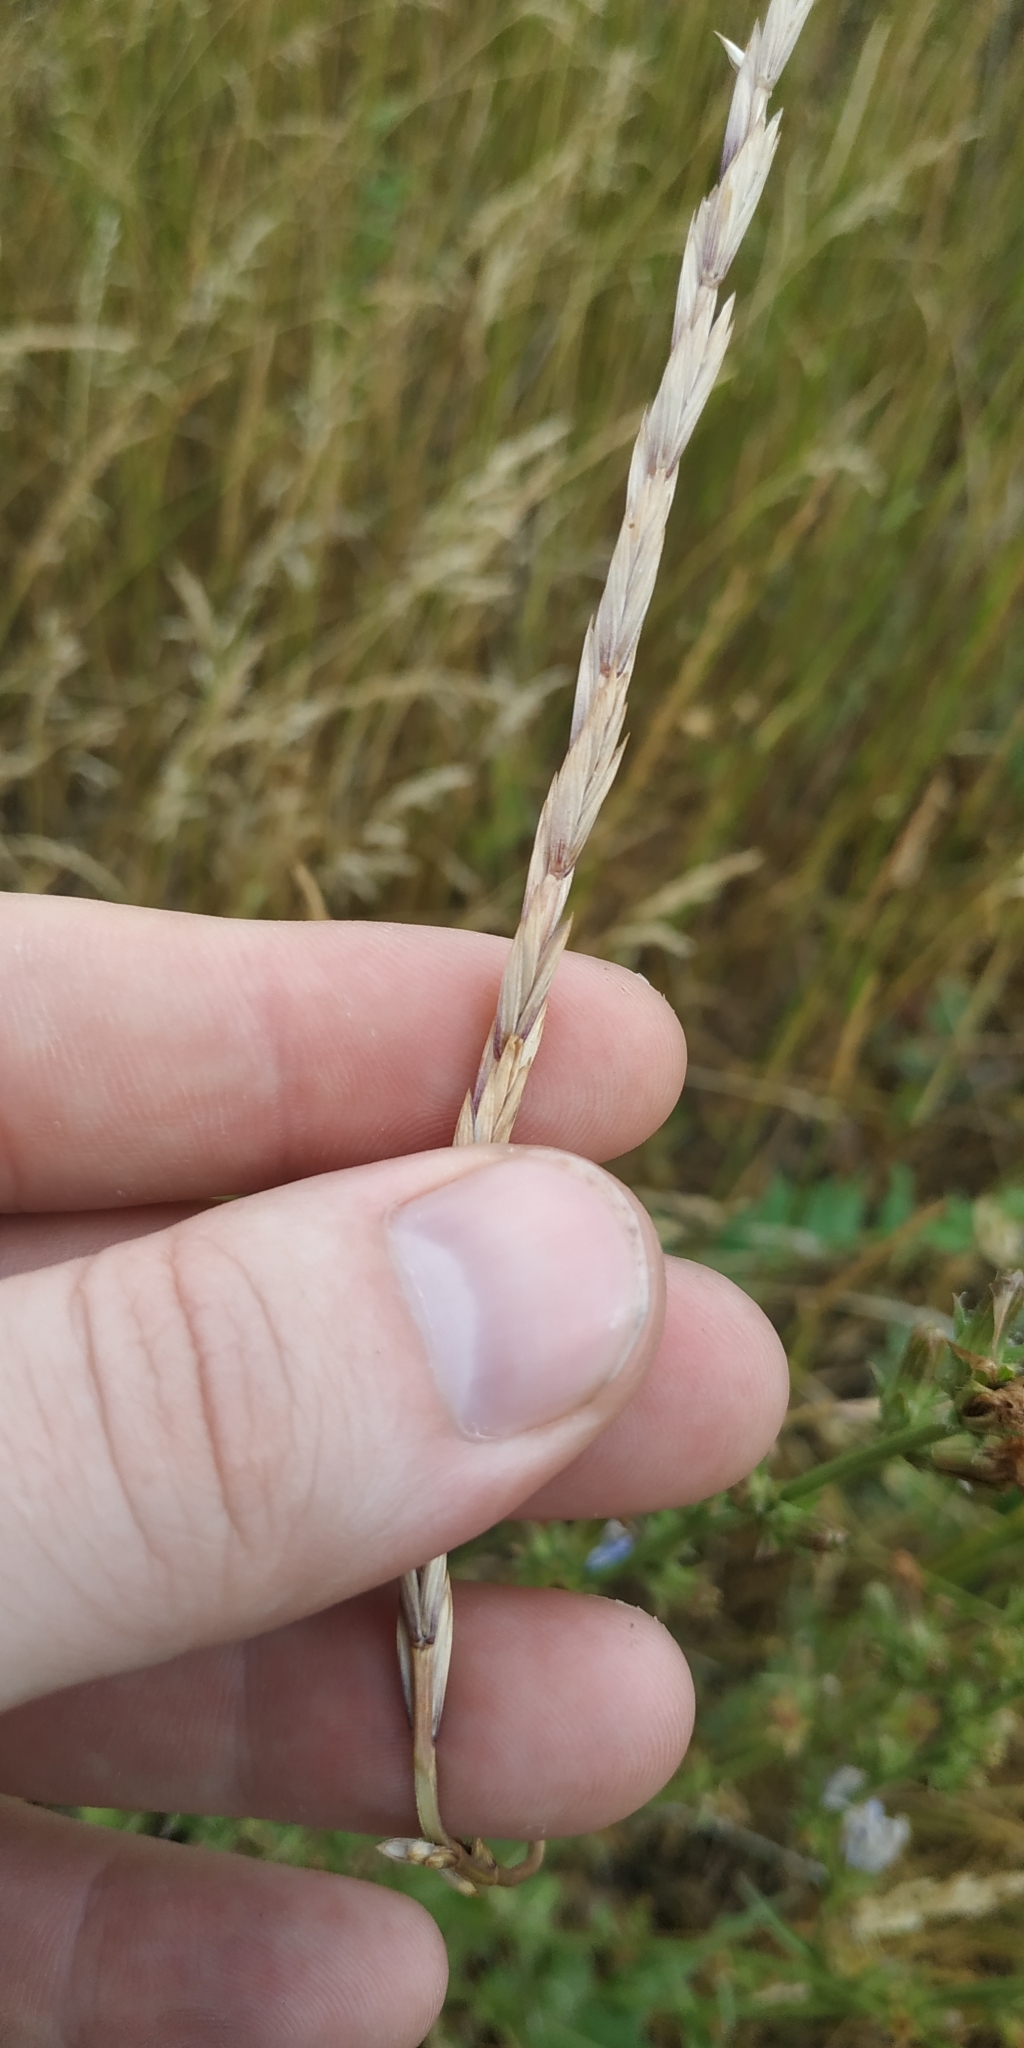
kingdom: Plantae
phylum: Tracheophyta
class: Liliopsida
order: Poales
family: Poaceae
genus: Elymus
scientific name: Elymus repens
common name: Quackgrass
